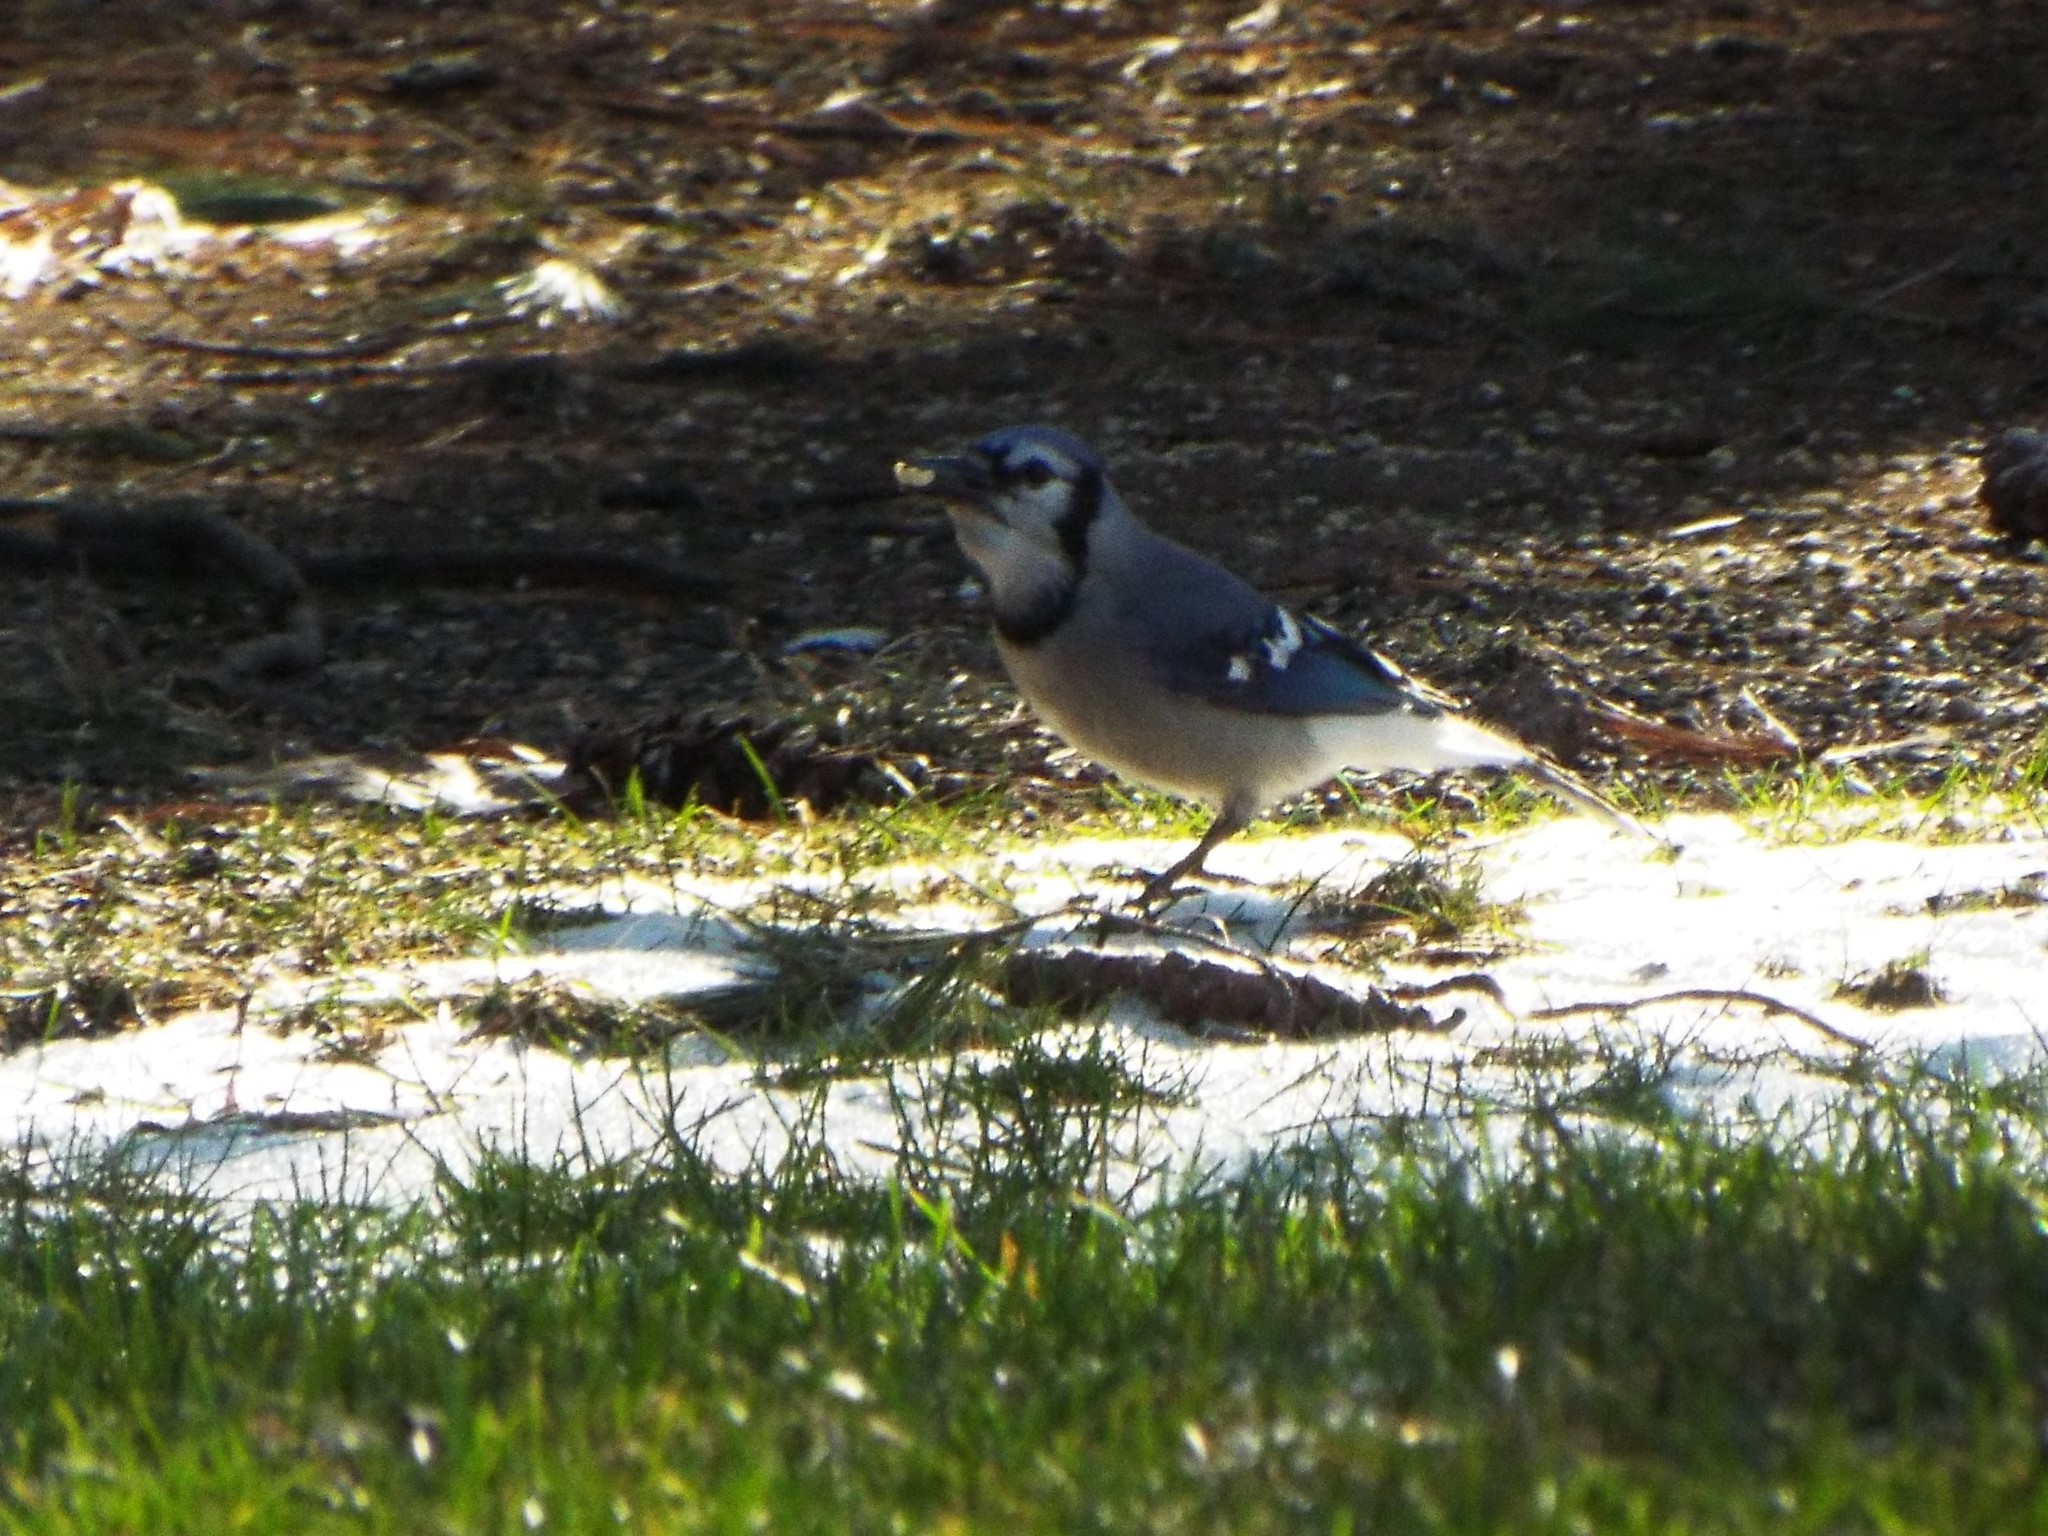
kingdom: Animalia
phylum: Chordata
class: Aves
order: Passeriformes
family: Corvidae
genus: Cyanocitta
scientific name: Cyanocitta cristata
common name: Blue jay
